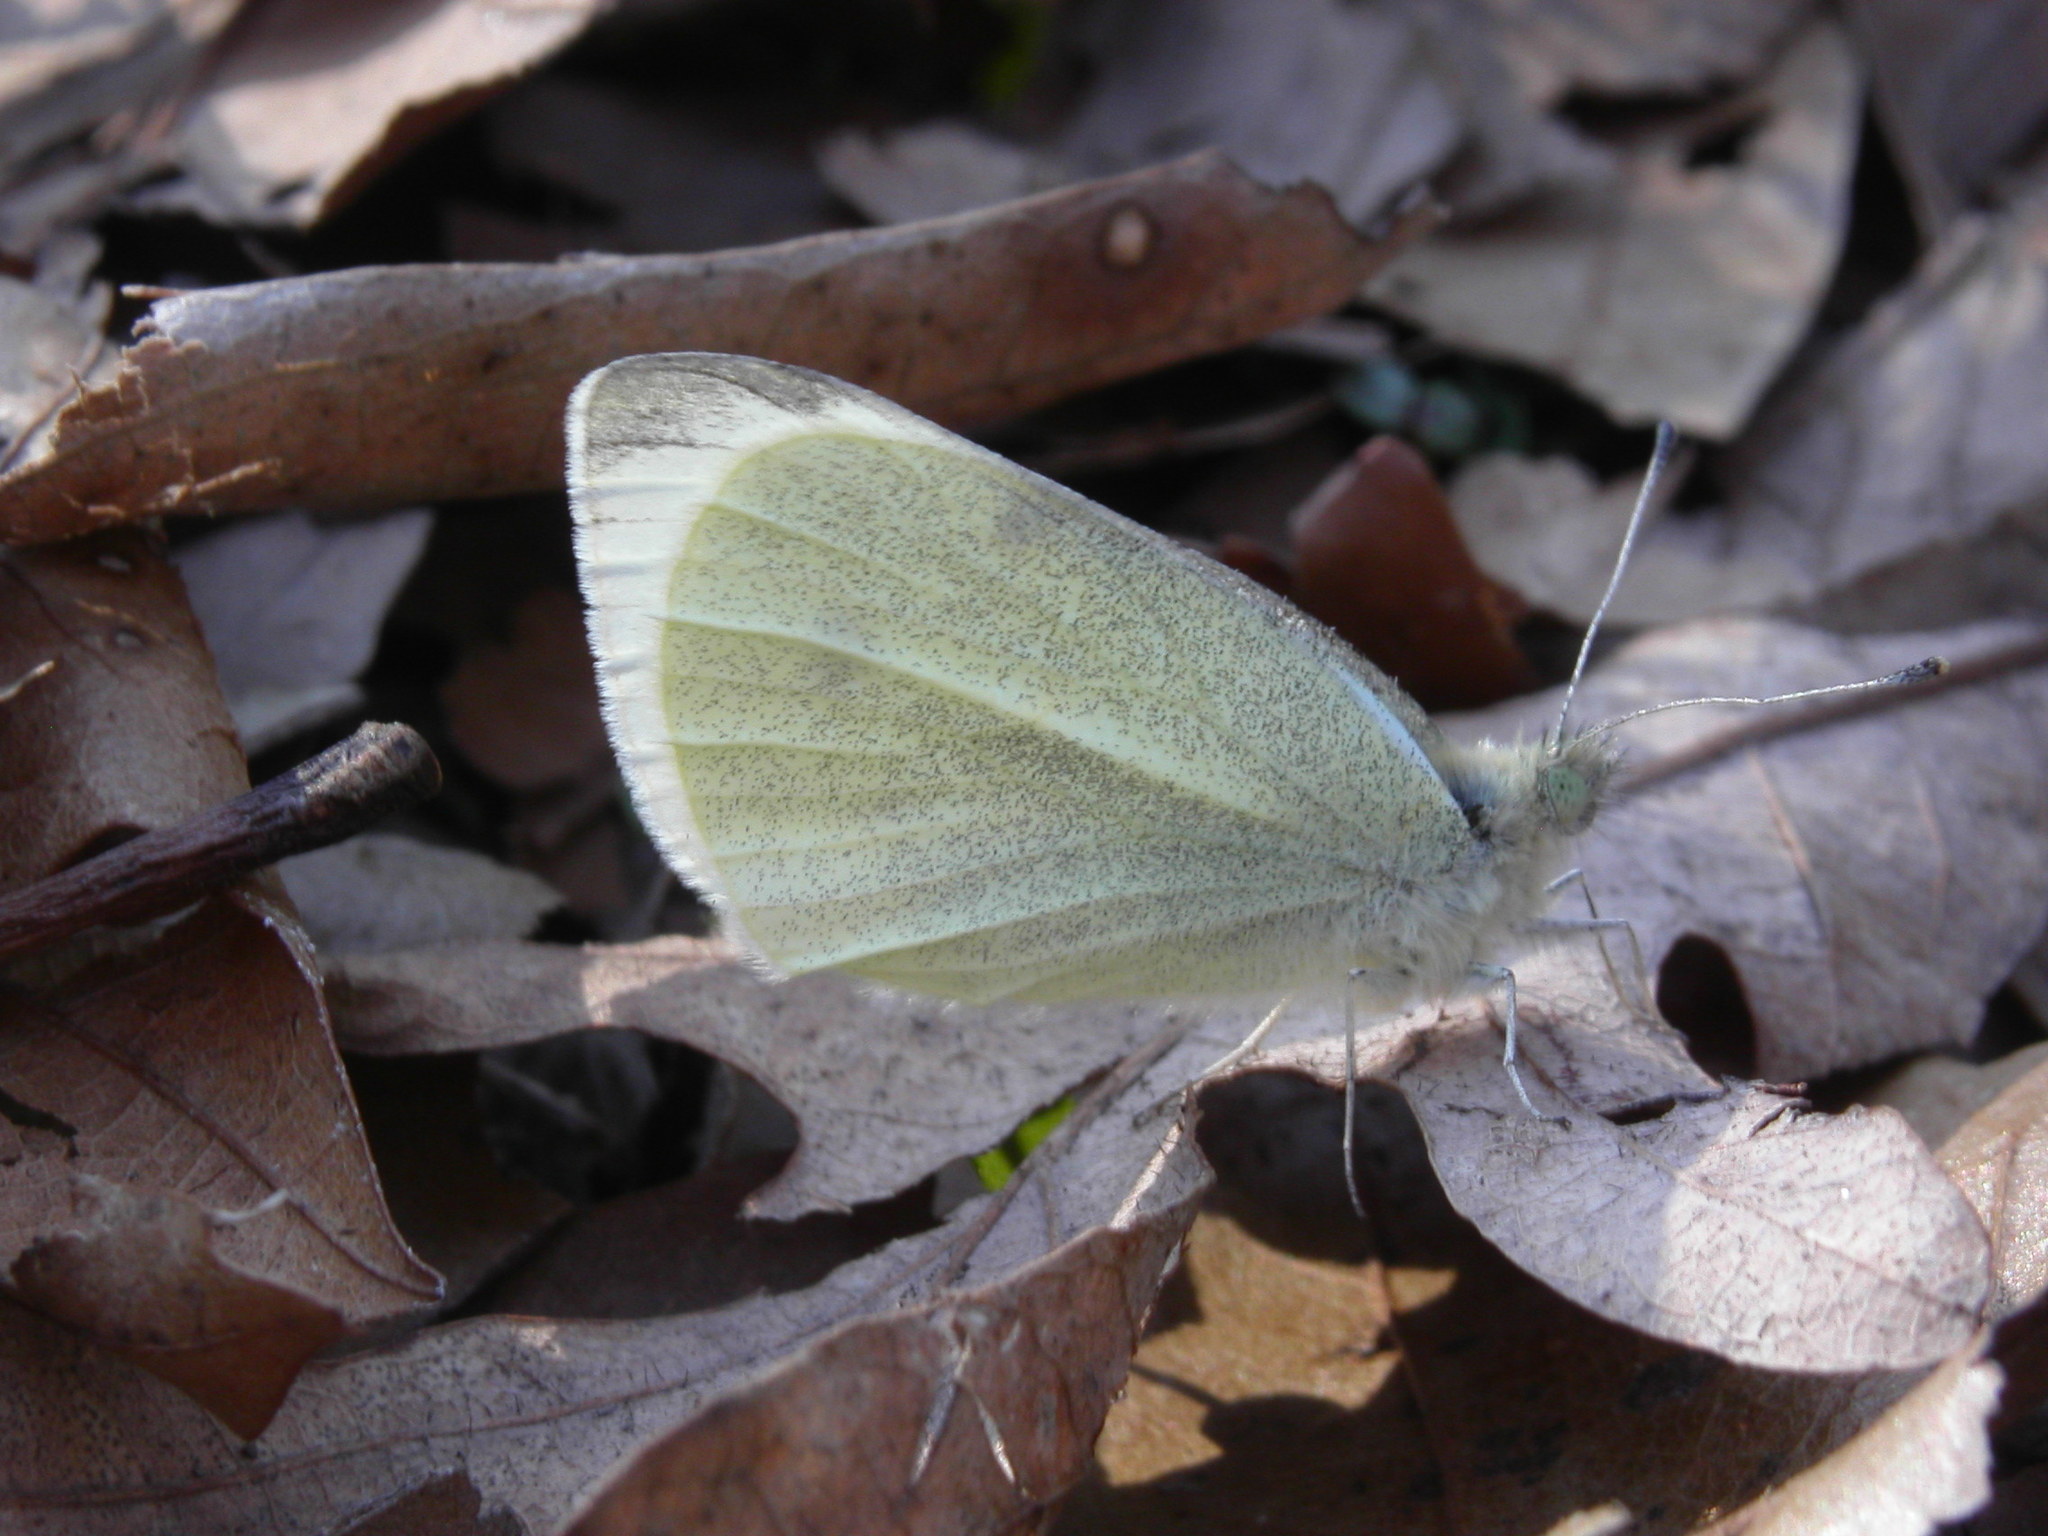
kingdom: Animalia
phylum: Arthropoda
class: Insecta
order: Lepidoptera
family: Pieridae
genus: Pieris
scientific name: Pieris rapae
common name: Small white
